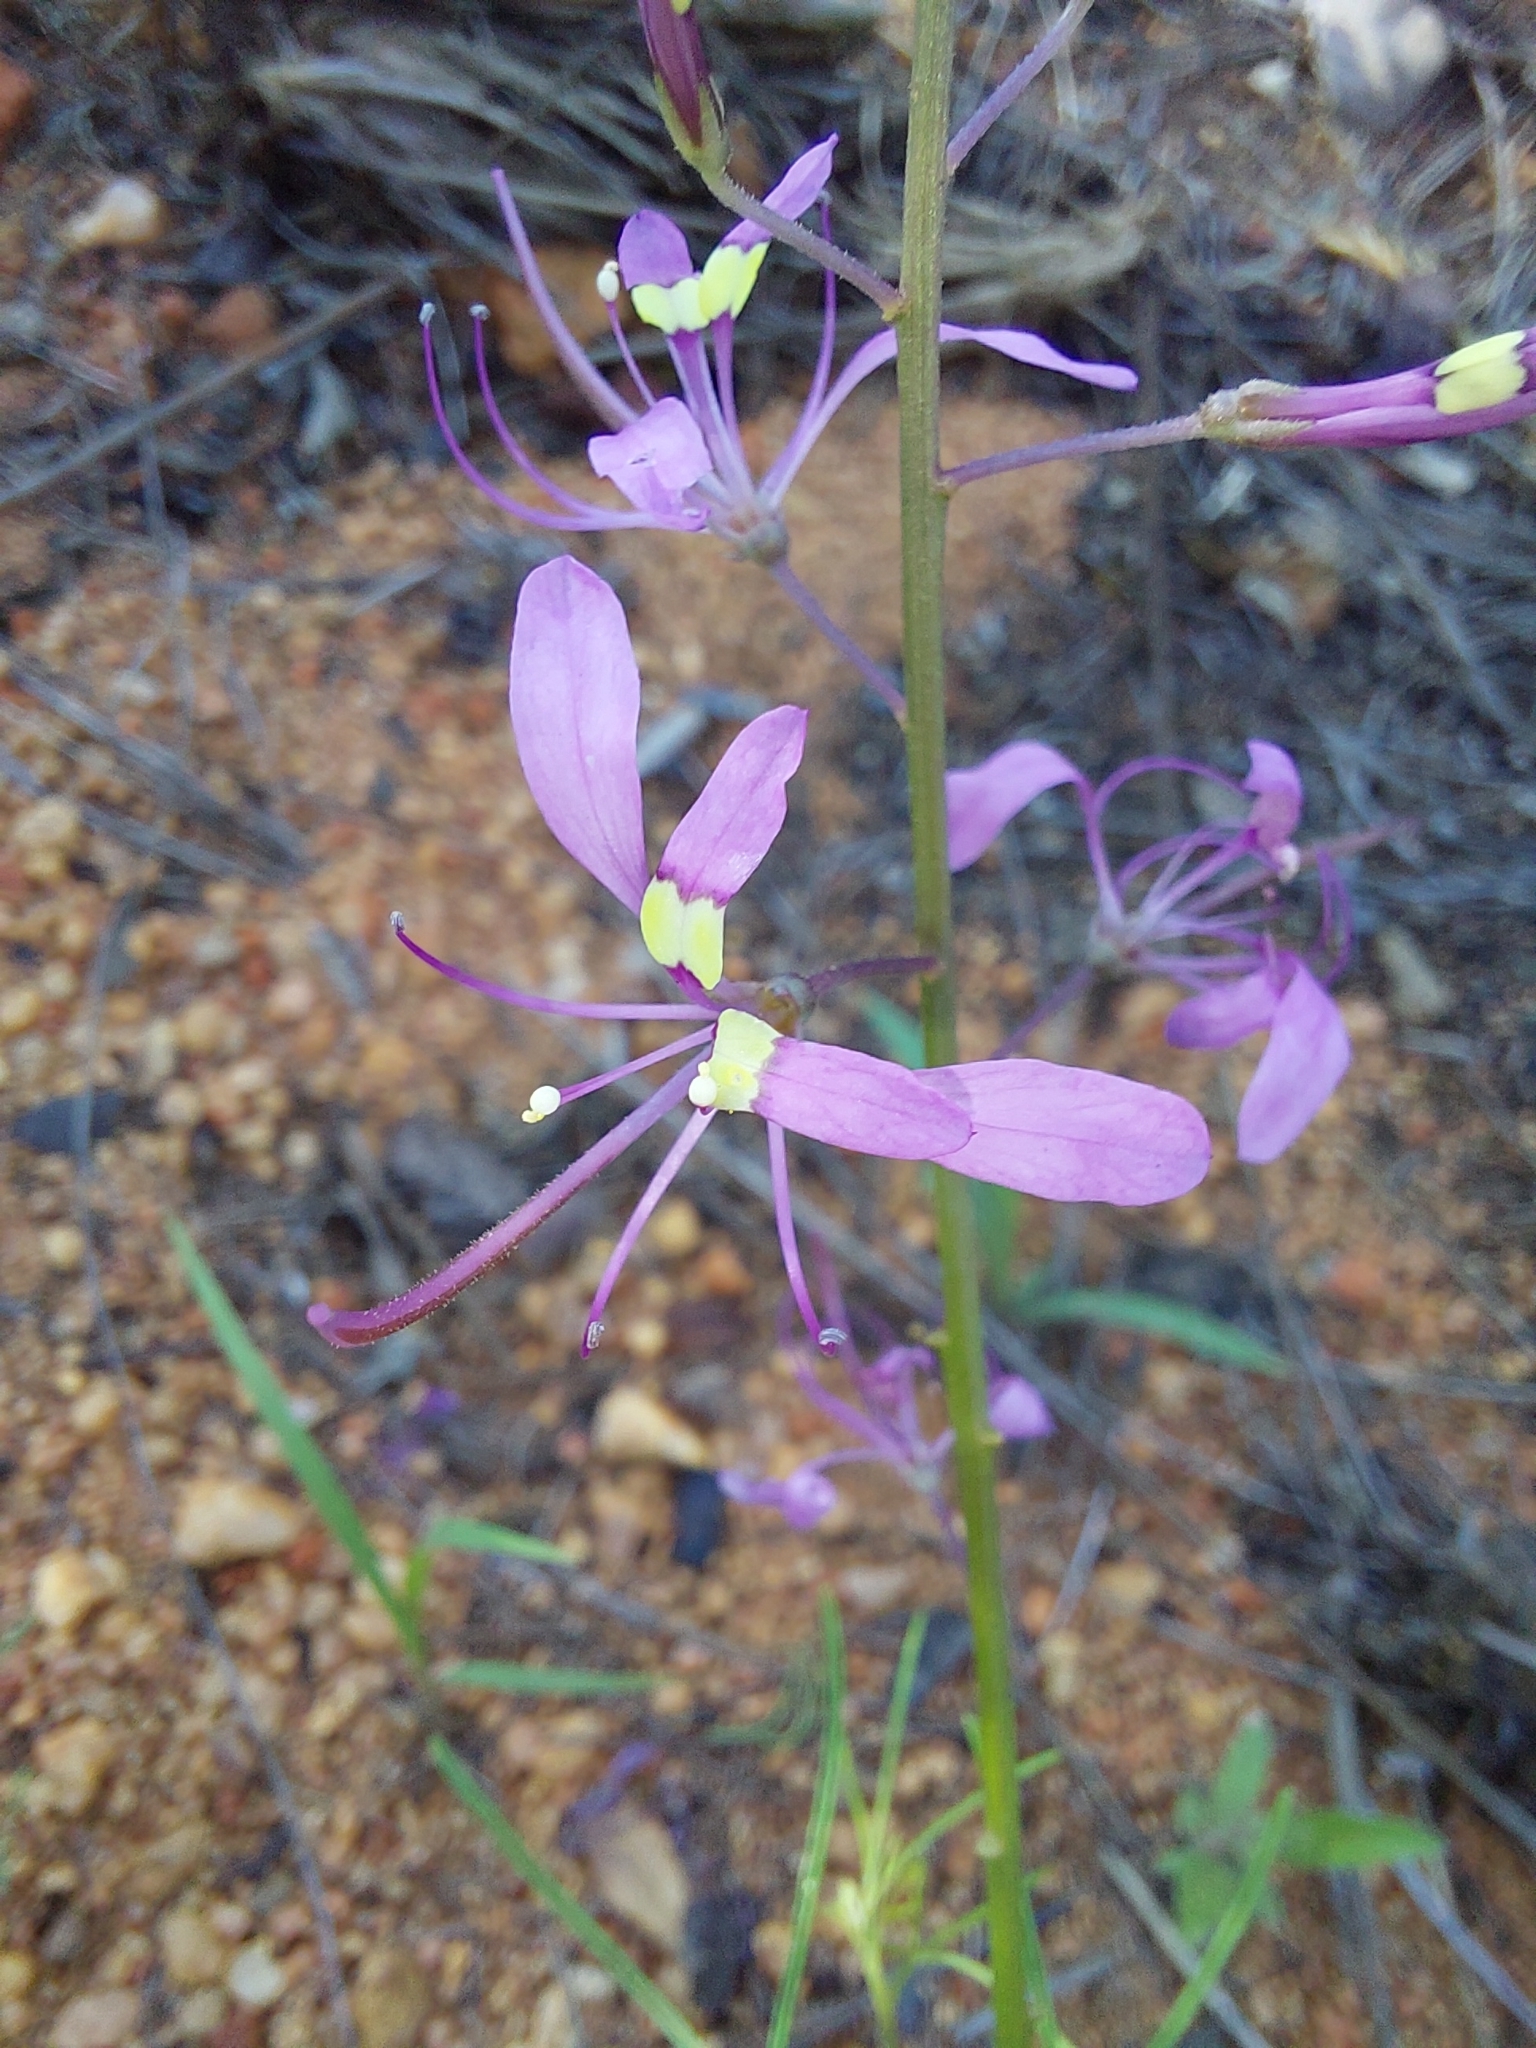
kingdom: Plantae
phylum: Tracheophyta
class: Magnoliopsida
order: Brassicales
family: Cleomaceae
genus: Sieruela
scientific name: Sieruela maculata
